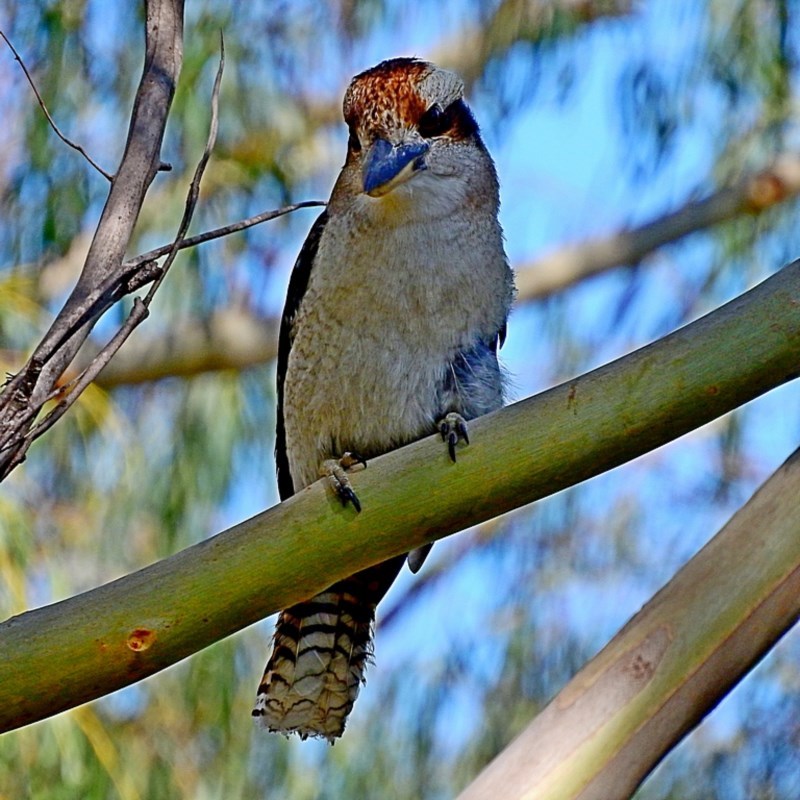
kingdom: Animalia
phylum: Chordata
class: Aves
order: Coraciiformes
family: Alcedinidae
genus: Dacelo
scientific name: Dacelo novaeguineae
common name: Laughing kookaburra
